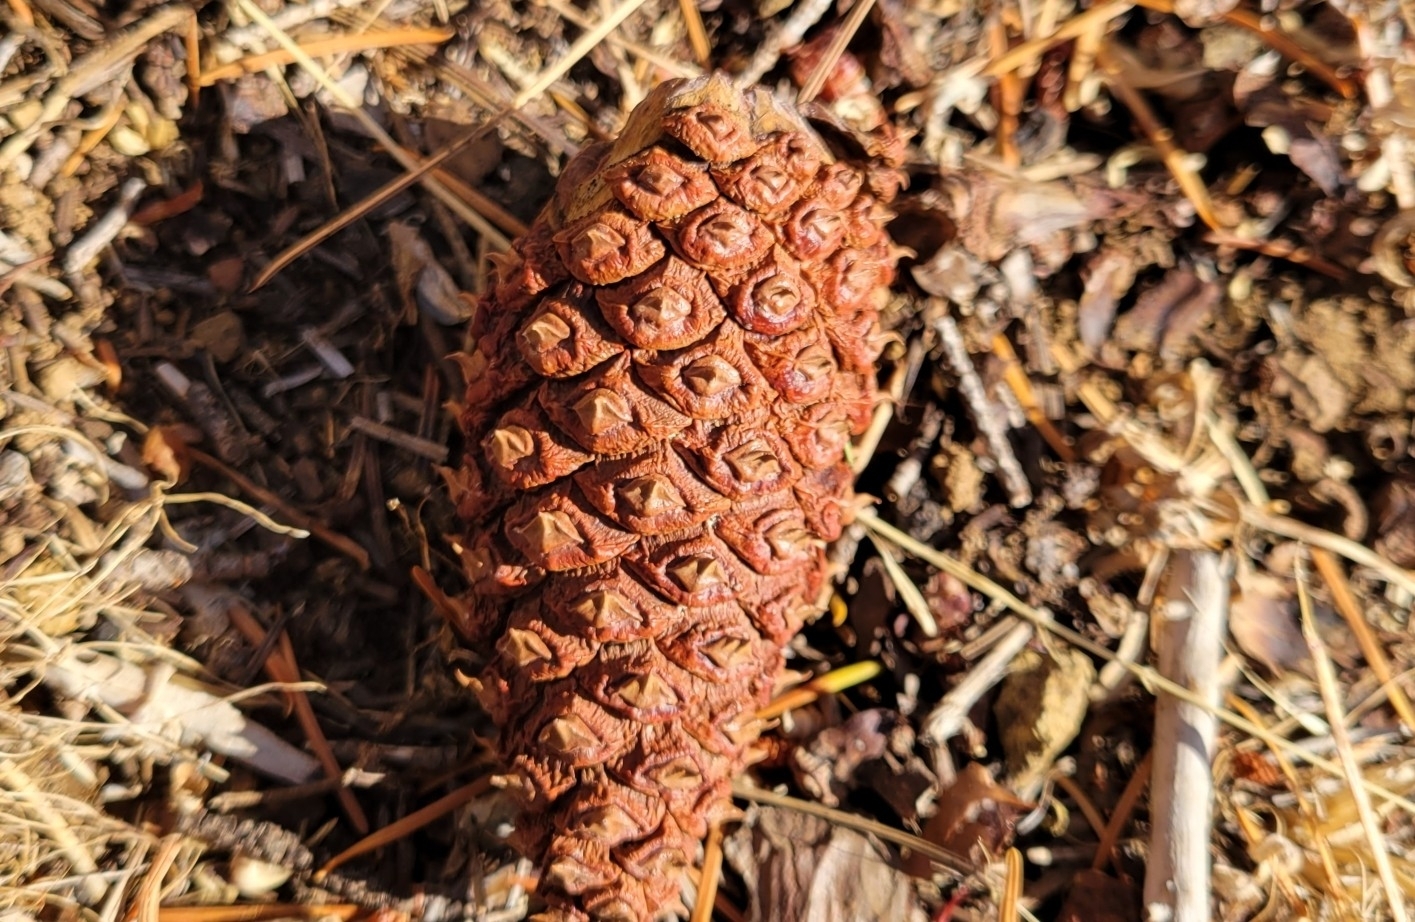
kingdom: Plantae
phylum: Tracheophyta
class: Pinopsida
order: Pinales
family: Pinaceae
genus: Pinus
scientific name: Pinus ponderosa
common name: Western yellow-pine
